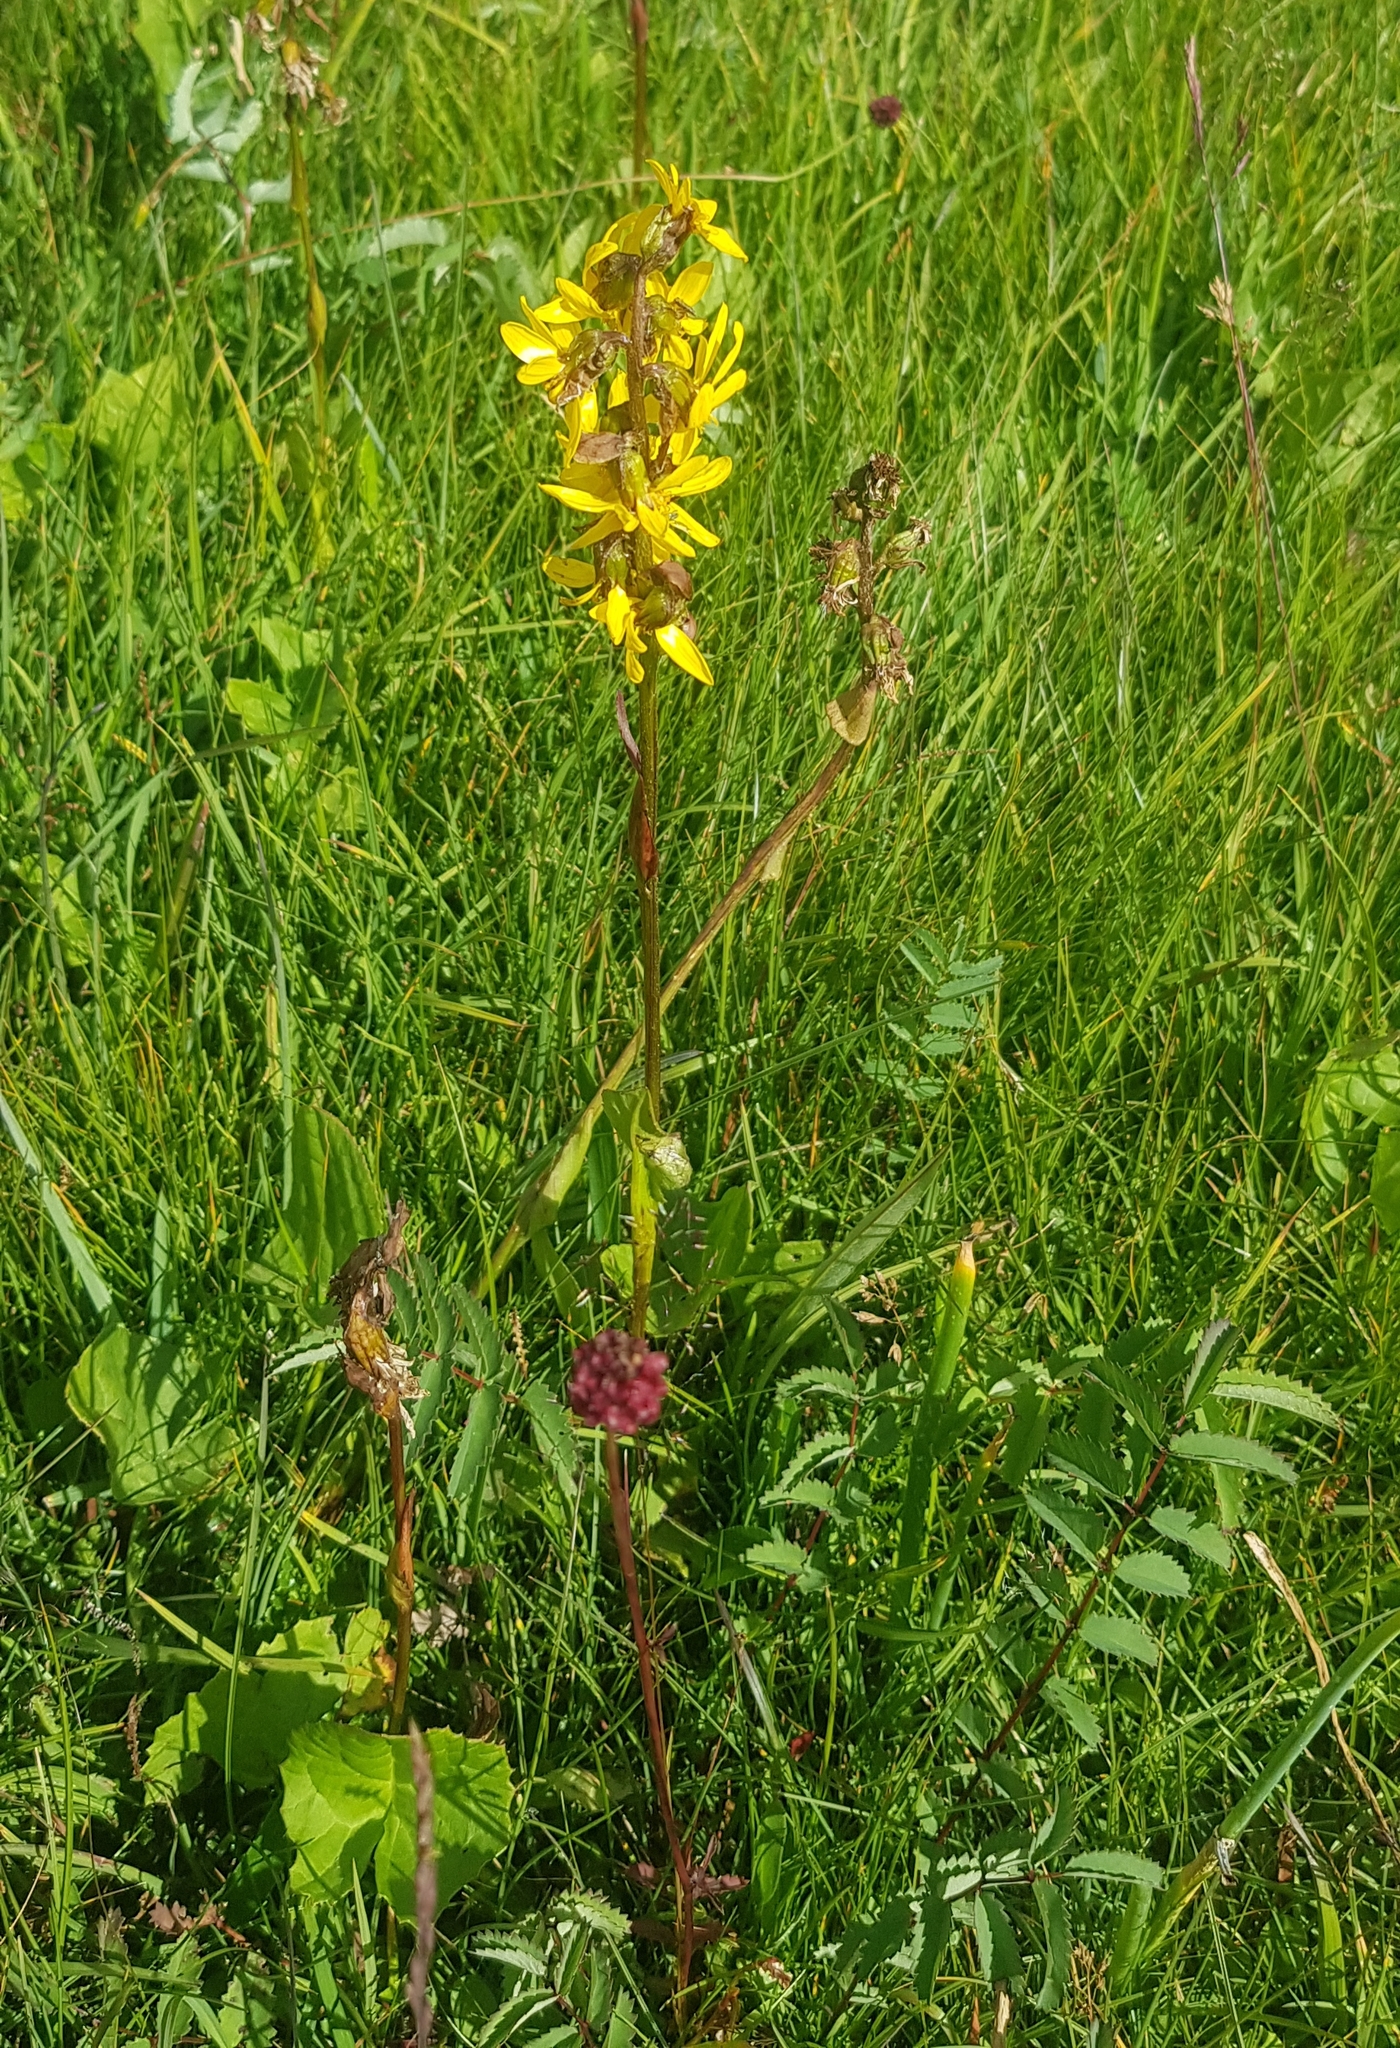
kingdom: Plantae
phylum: Tracheophyta
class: Magnoliopsida
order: Asterales
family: Asteraceae
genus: Ligularia
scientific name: Ligularia sibirica
